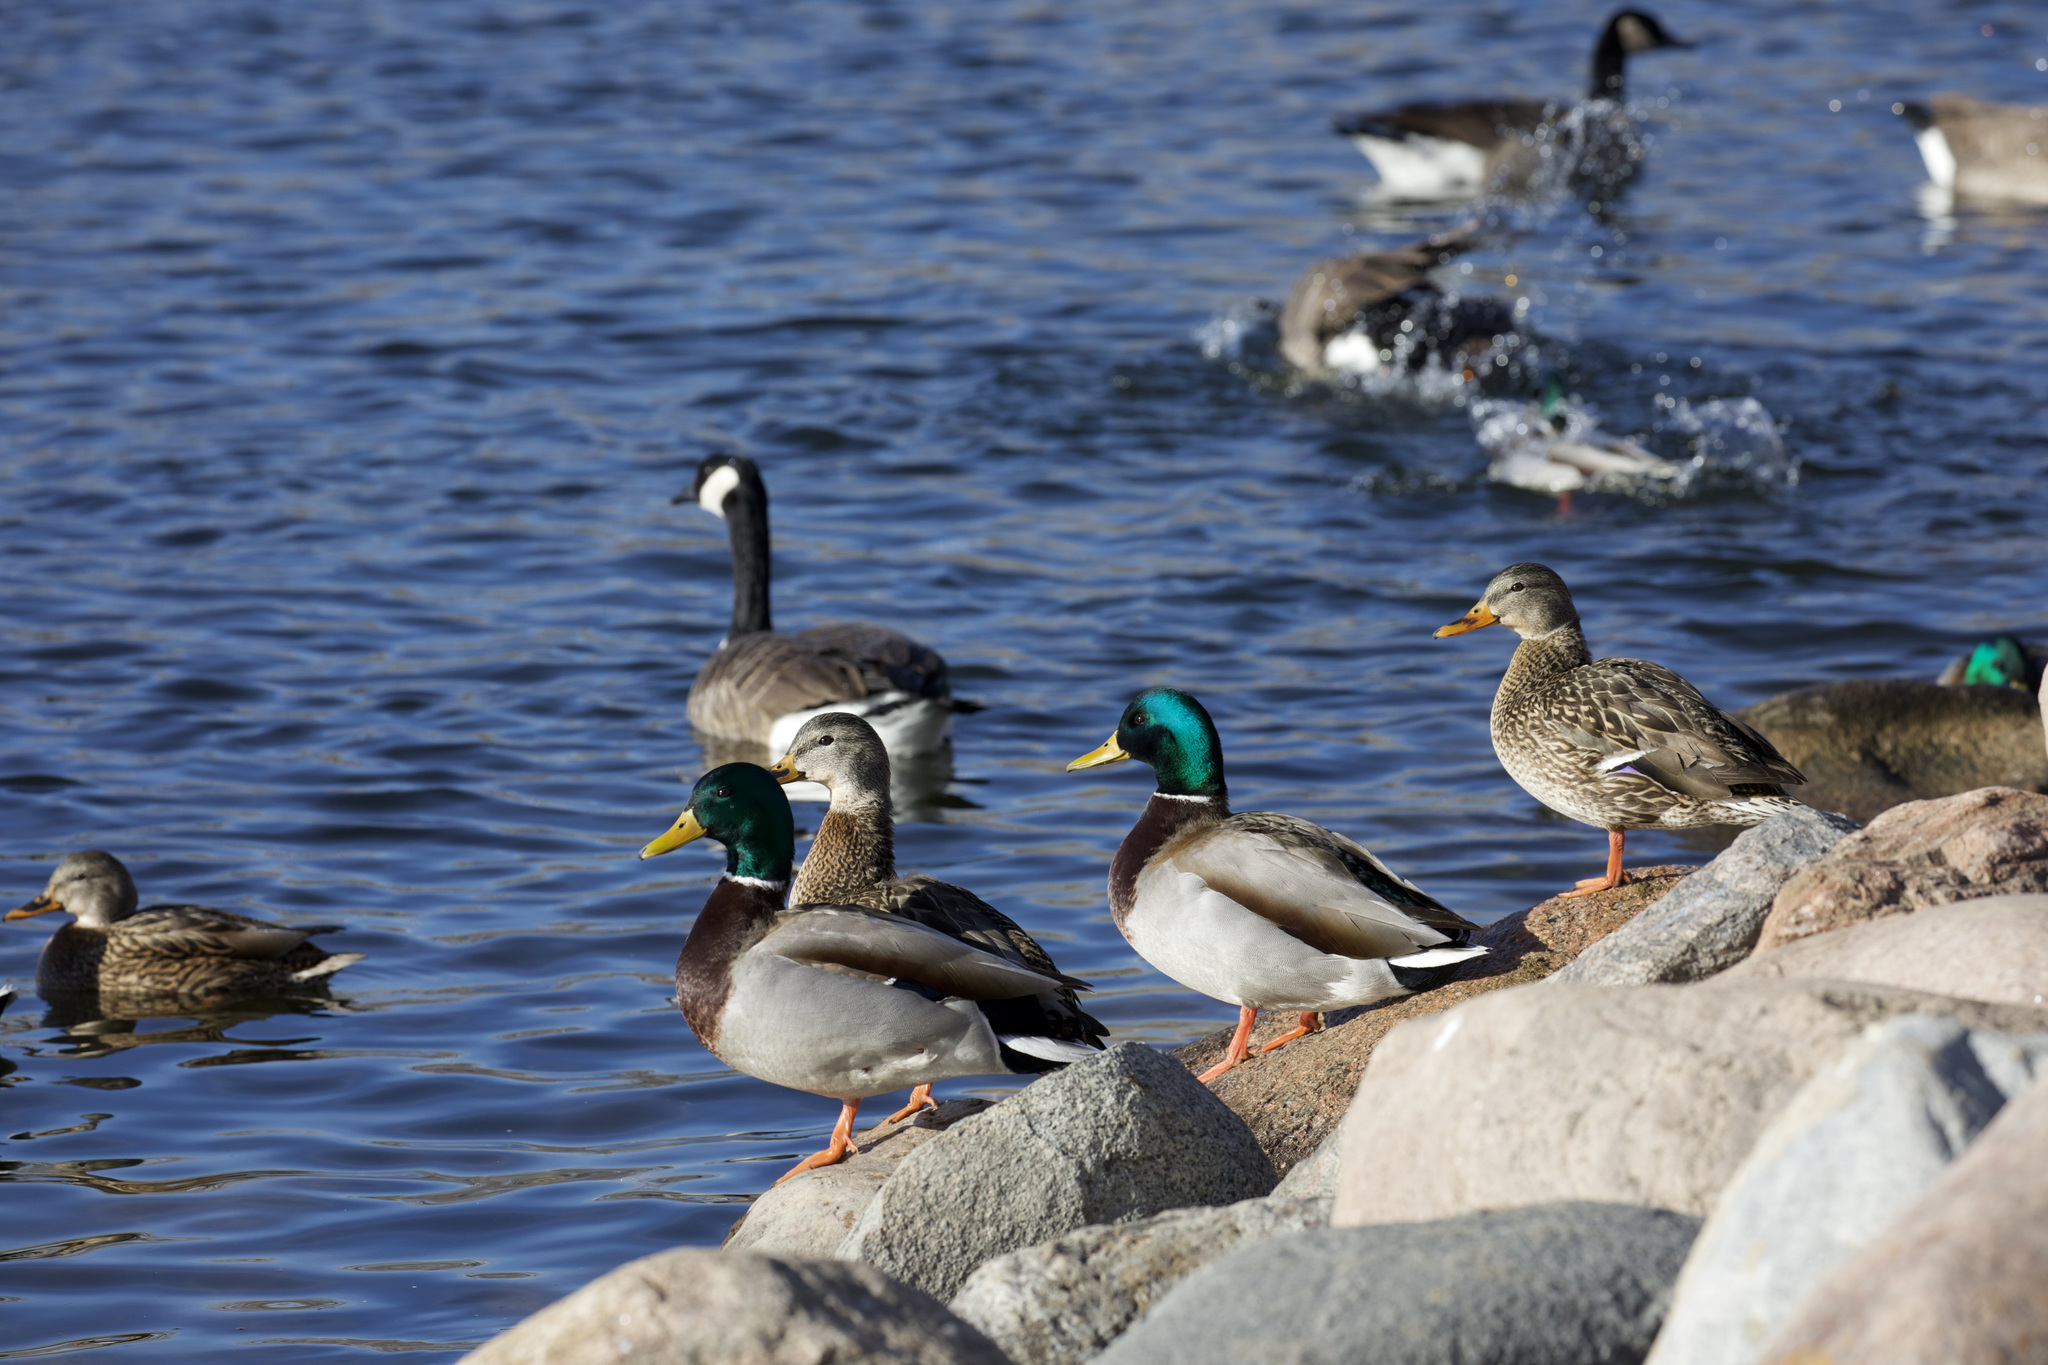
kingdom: Animalia
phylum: Chordata
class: Aves
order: Anseriformes
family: Anatidae
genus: Anas
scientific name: Anas platyrhynchos
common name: Mallard
